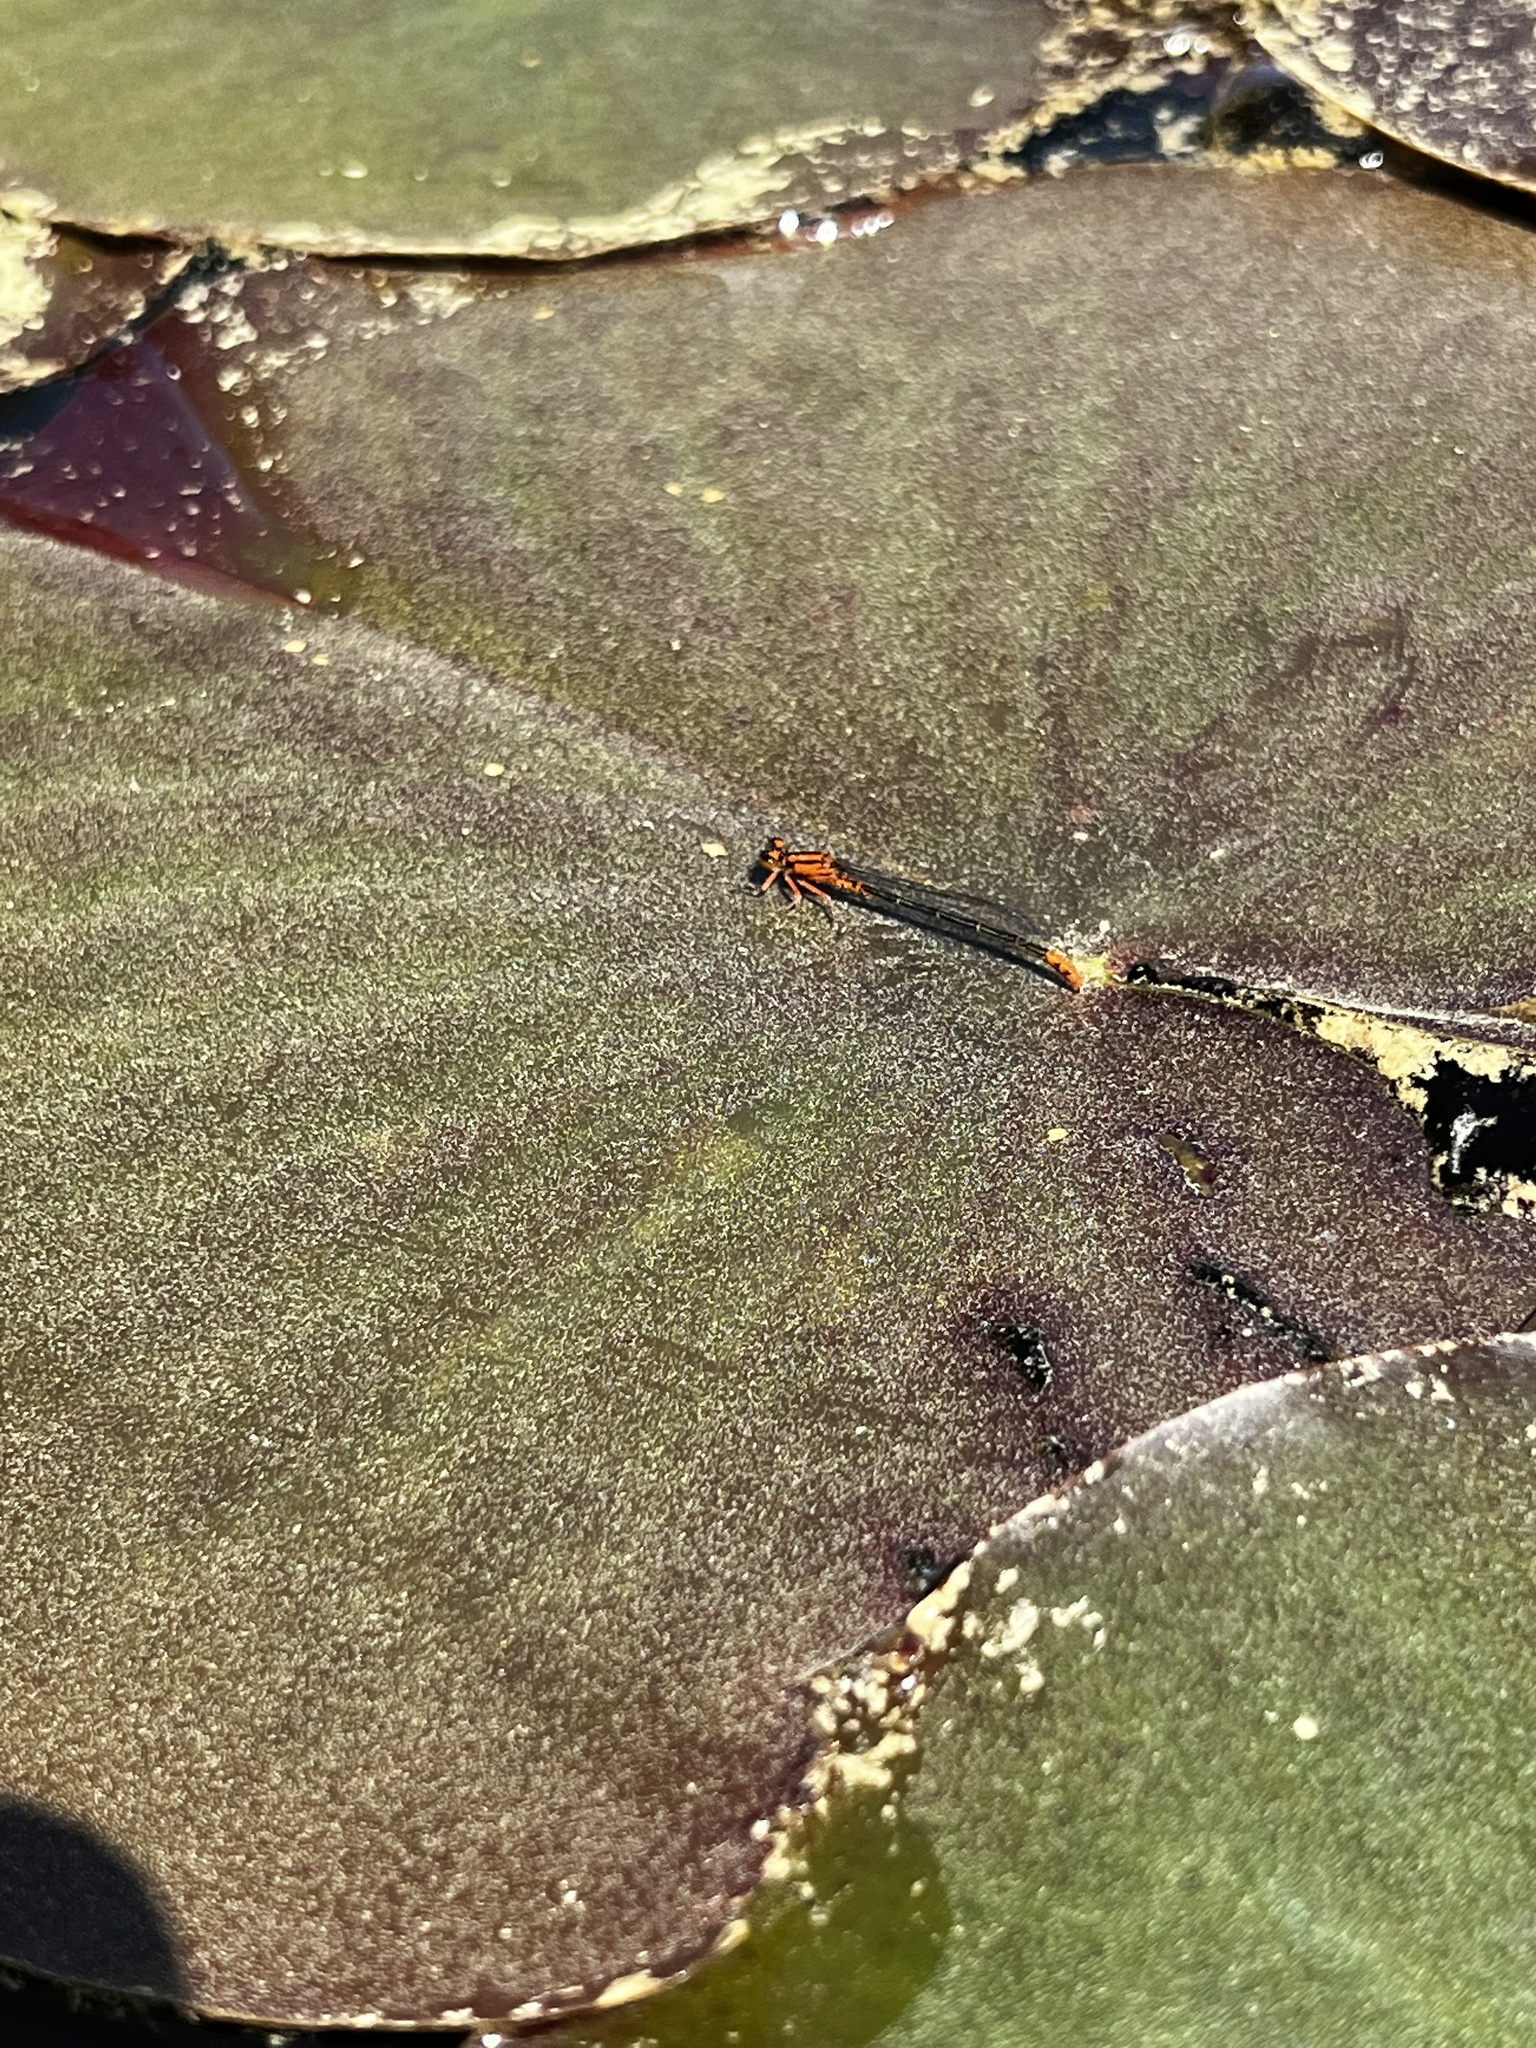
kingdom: Animalia
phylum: Arthropoda
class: Insecta
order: Odonata
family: Coenagrionidae
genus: Ischnura
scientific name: Ischnura kellicotti
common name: Lilypad forktail
